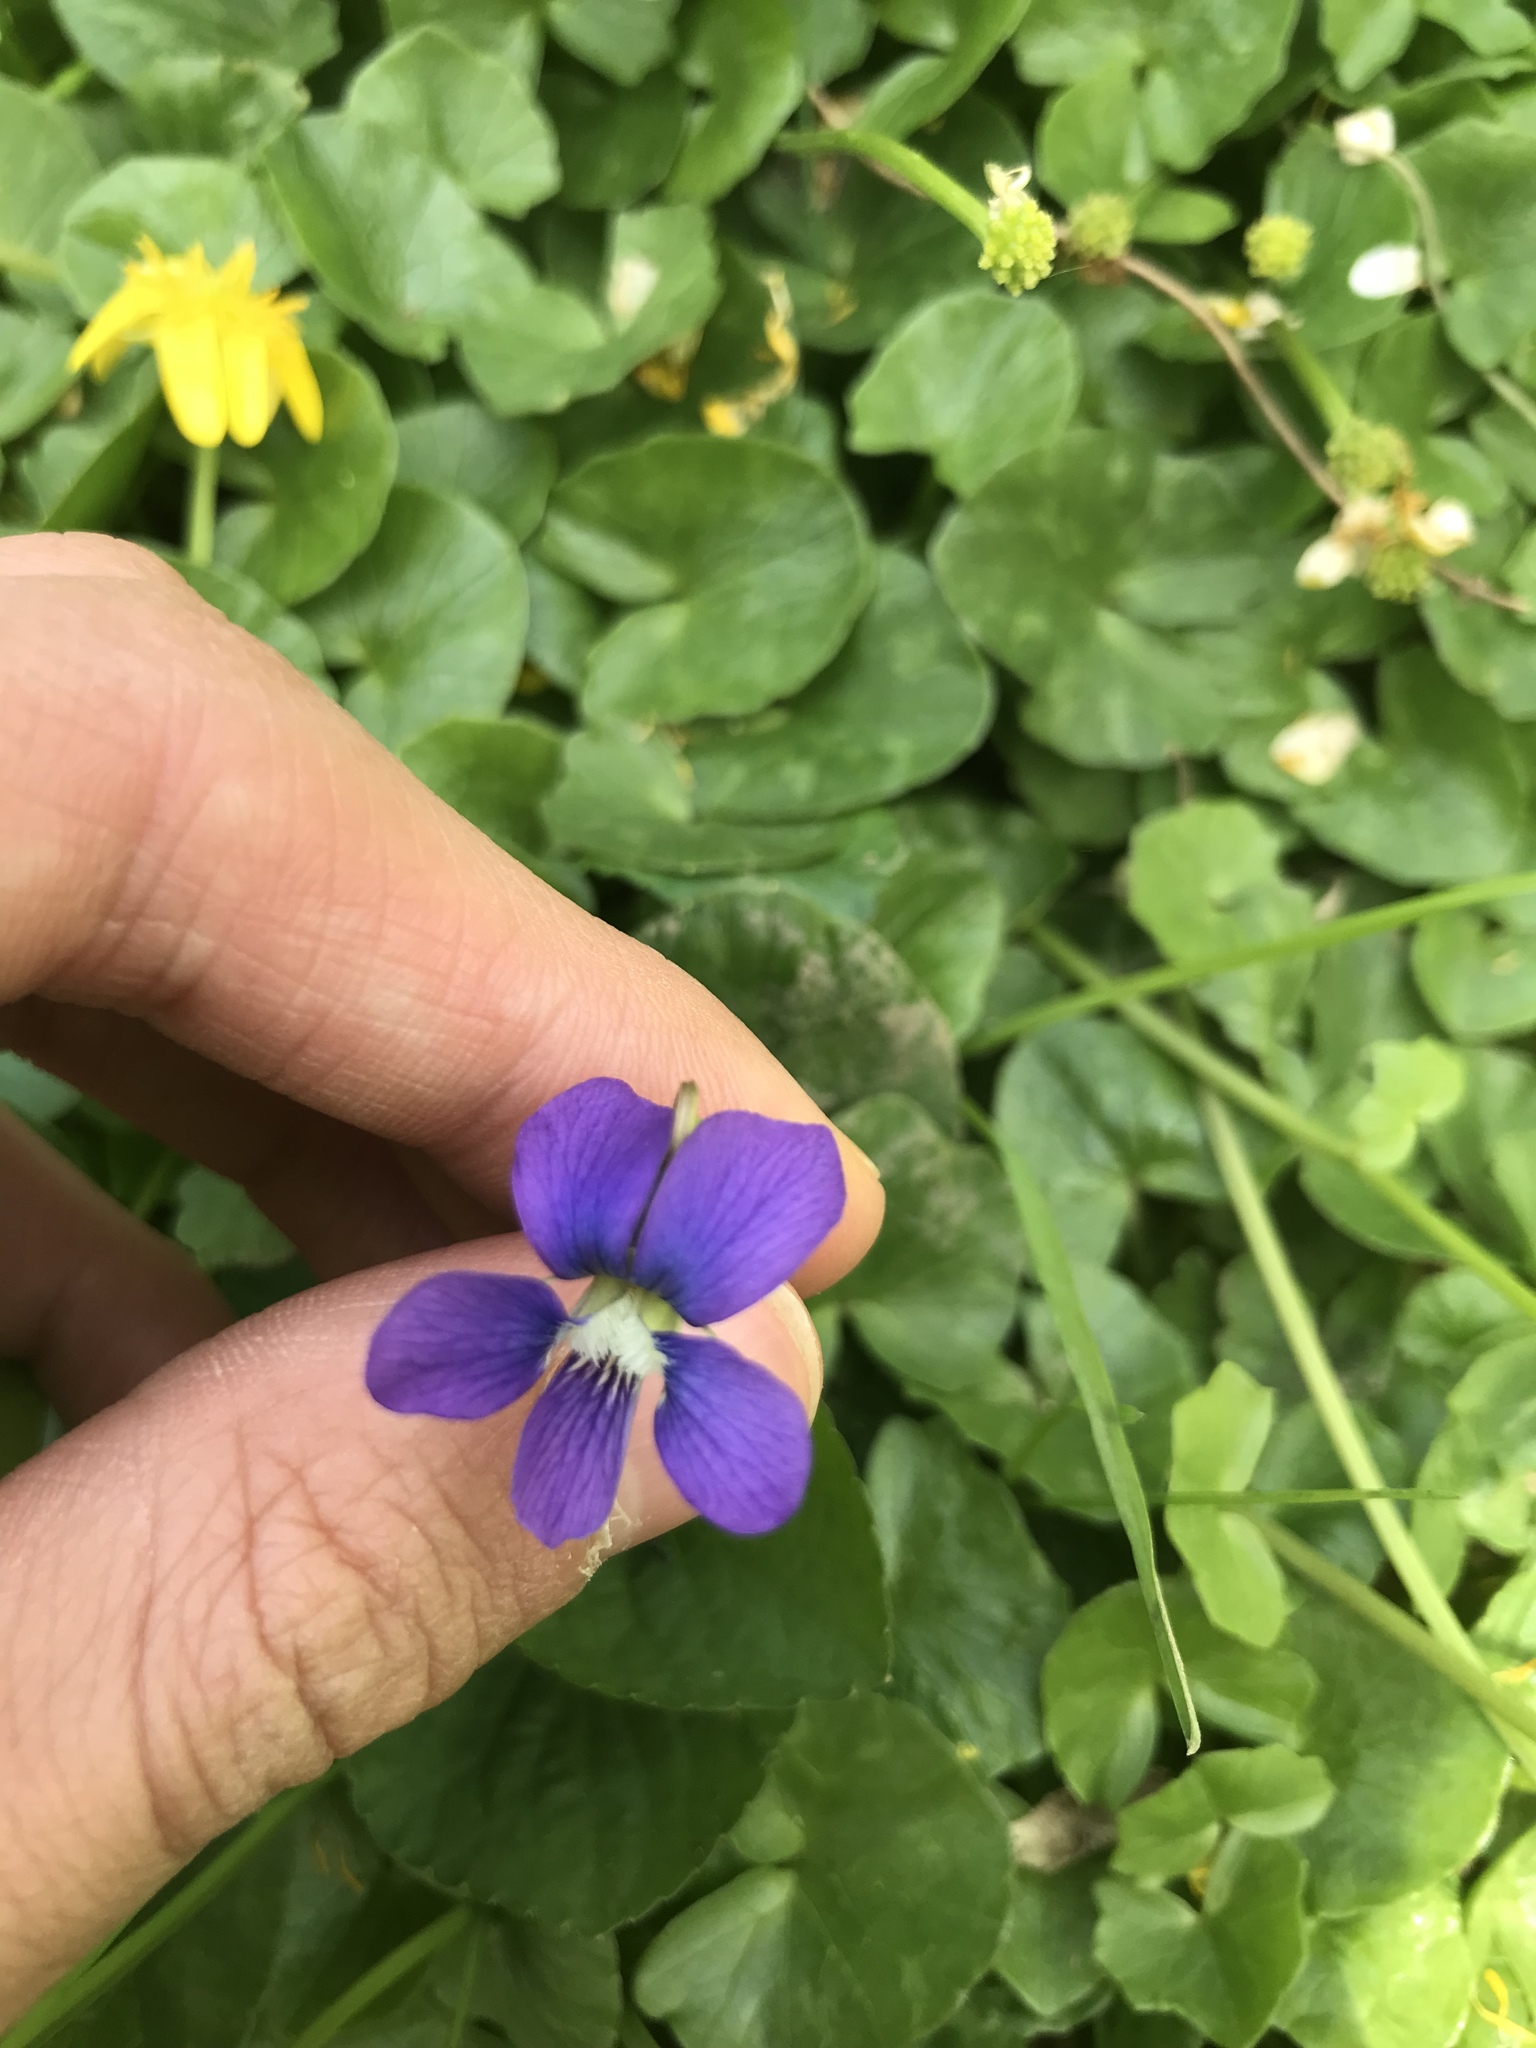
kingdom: Plantae
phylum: Tracheophyta
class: Magnoliopsida
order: Malpighiales
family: Violaceae
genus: Viola
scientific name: Viola sororia
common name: Dooryard violet
